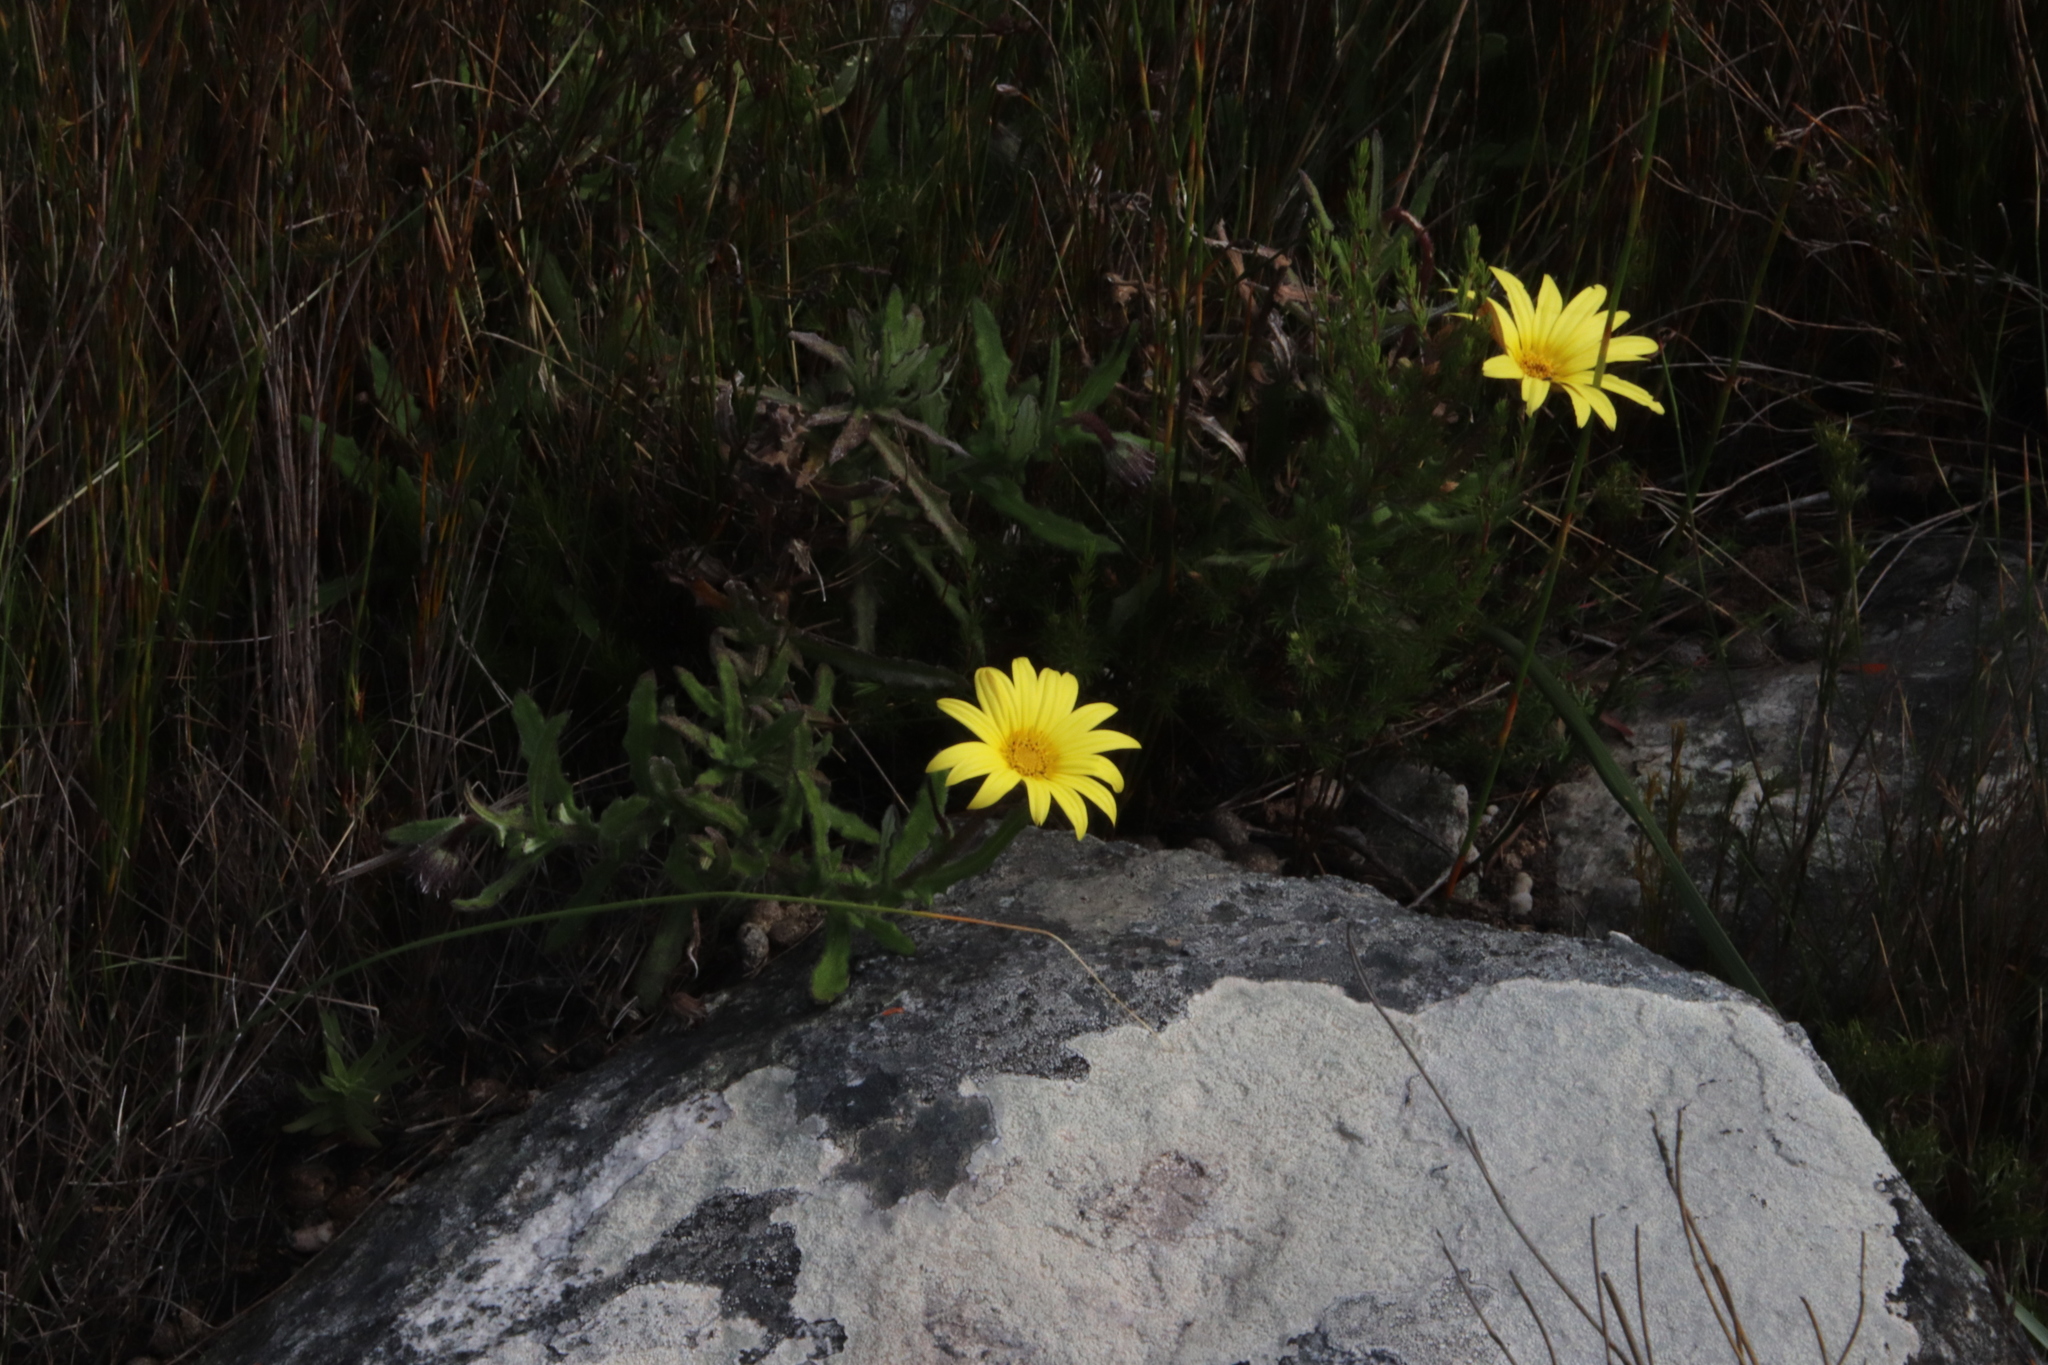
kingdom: Plantae
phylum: Tracheophyta
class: Magnoliopsida
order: Asterales
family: Asteraceae
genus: Osteospermum
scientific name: Osteospermum ilicifolium
